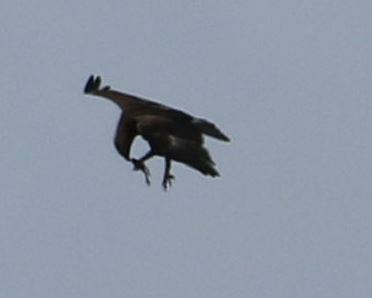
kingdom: Animalia
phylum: Chordata
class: Aves
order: Accipitriformes
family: Accipitridae
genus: Aquila
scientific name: Aquila pomarina
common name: Lesser spotted eagle
